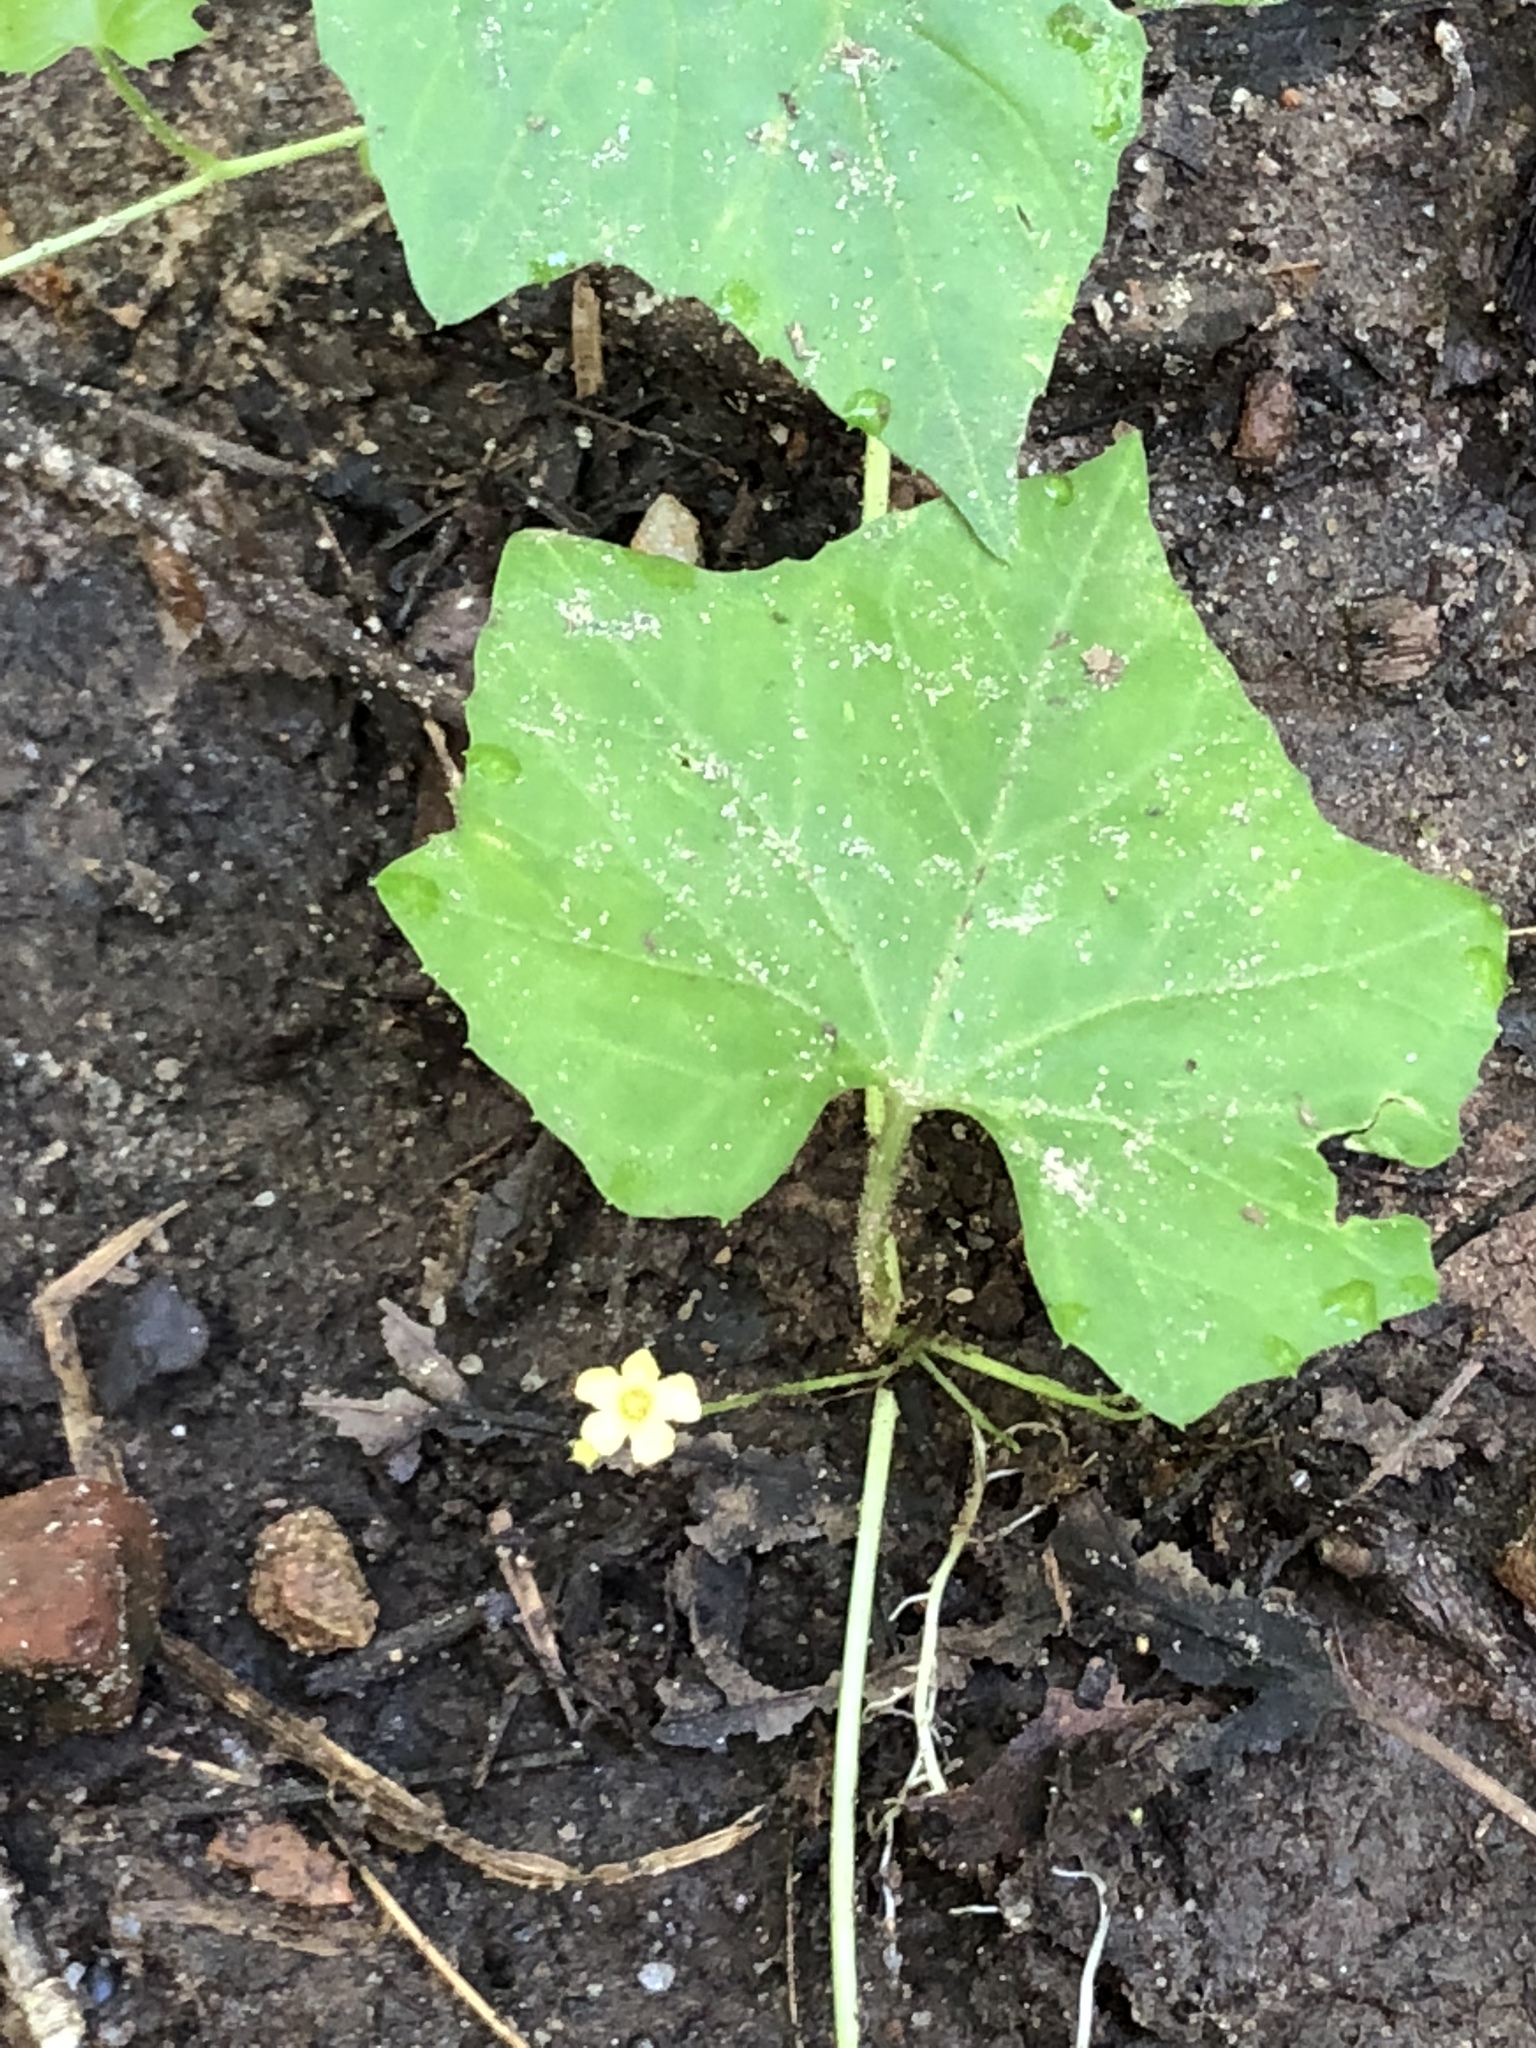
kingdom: Plantae
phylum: Tracheophyta
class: Magnoliopsida
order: Cucurbitales
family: Cucurbitaceae
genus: Melothria
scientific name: Melothria pendula
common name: Creeping-cucumber
